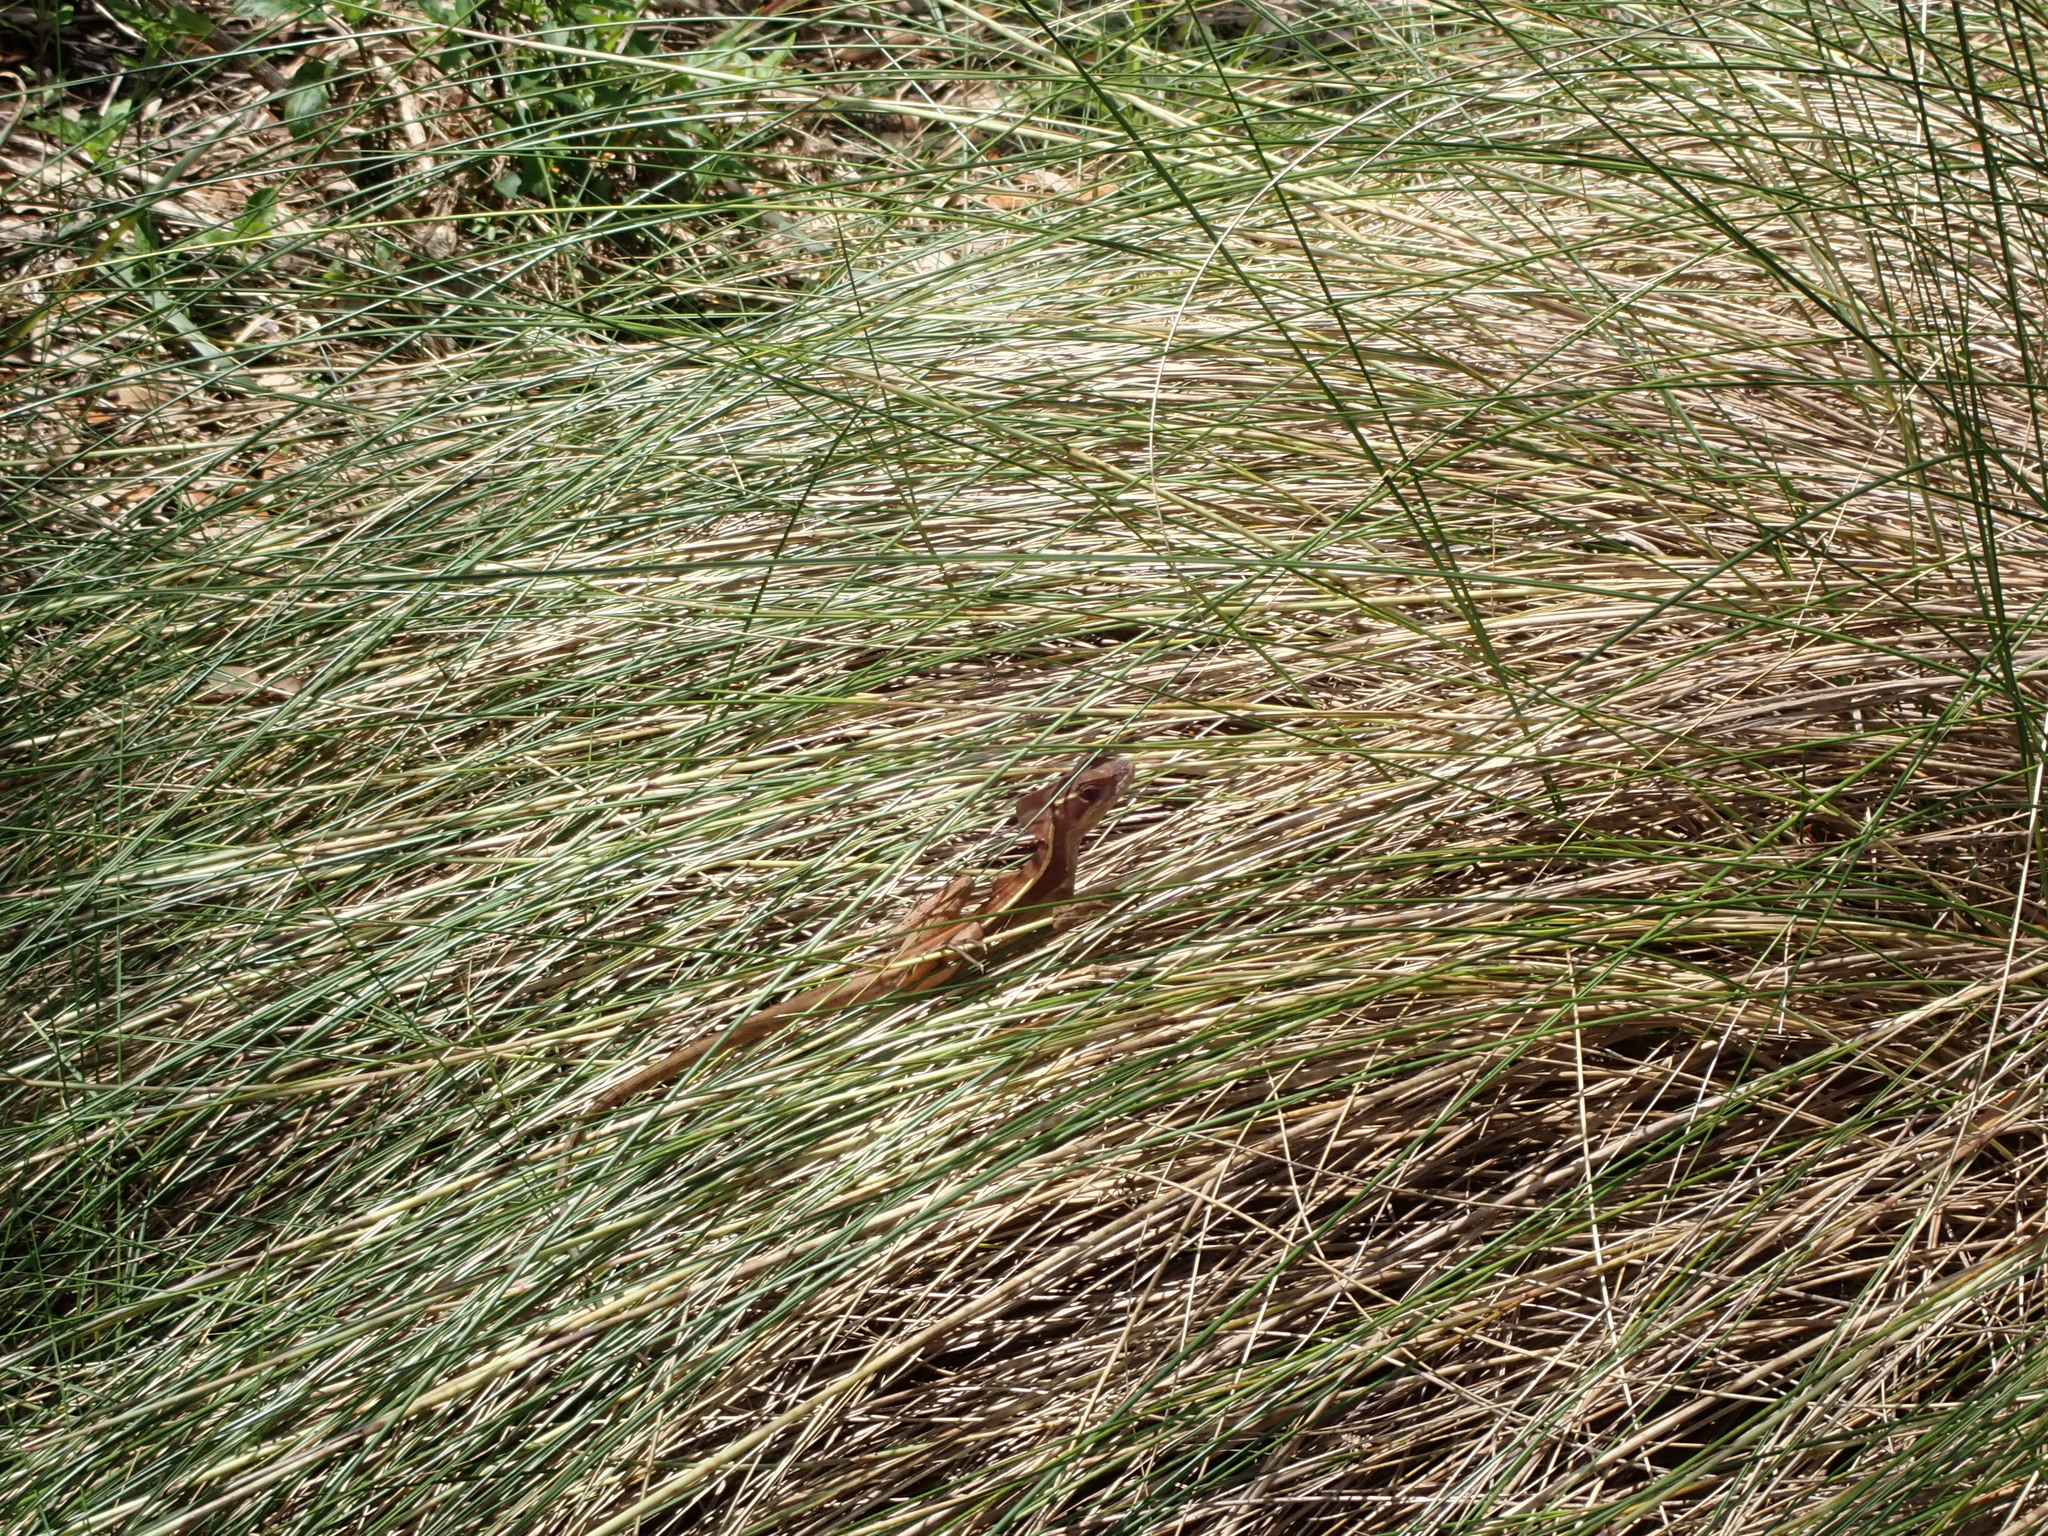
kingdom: Animalia
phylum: Chordata
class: Squamata
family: Corytophanidae
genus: Basiliscus
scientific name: Basiliscus vittatus
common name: Brown basilisk
